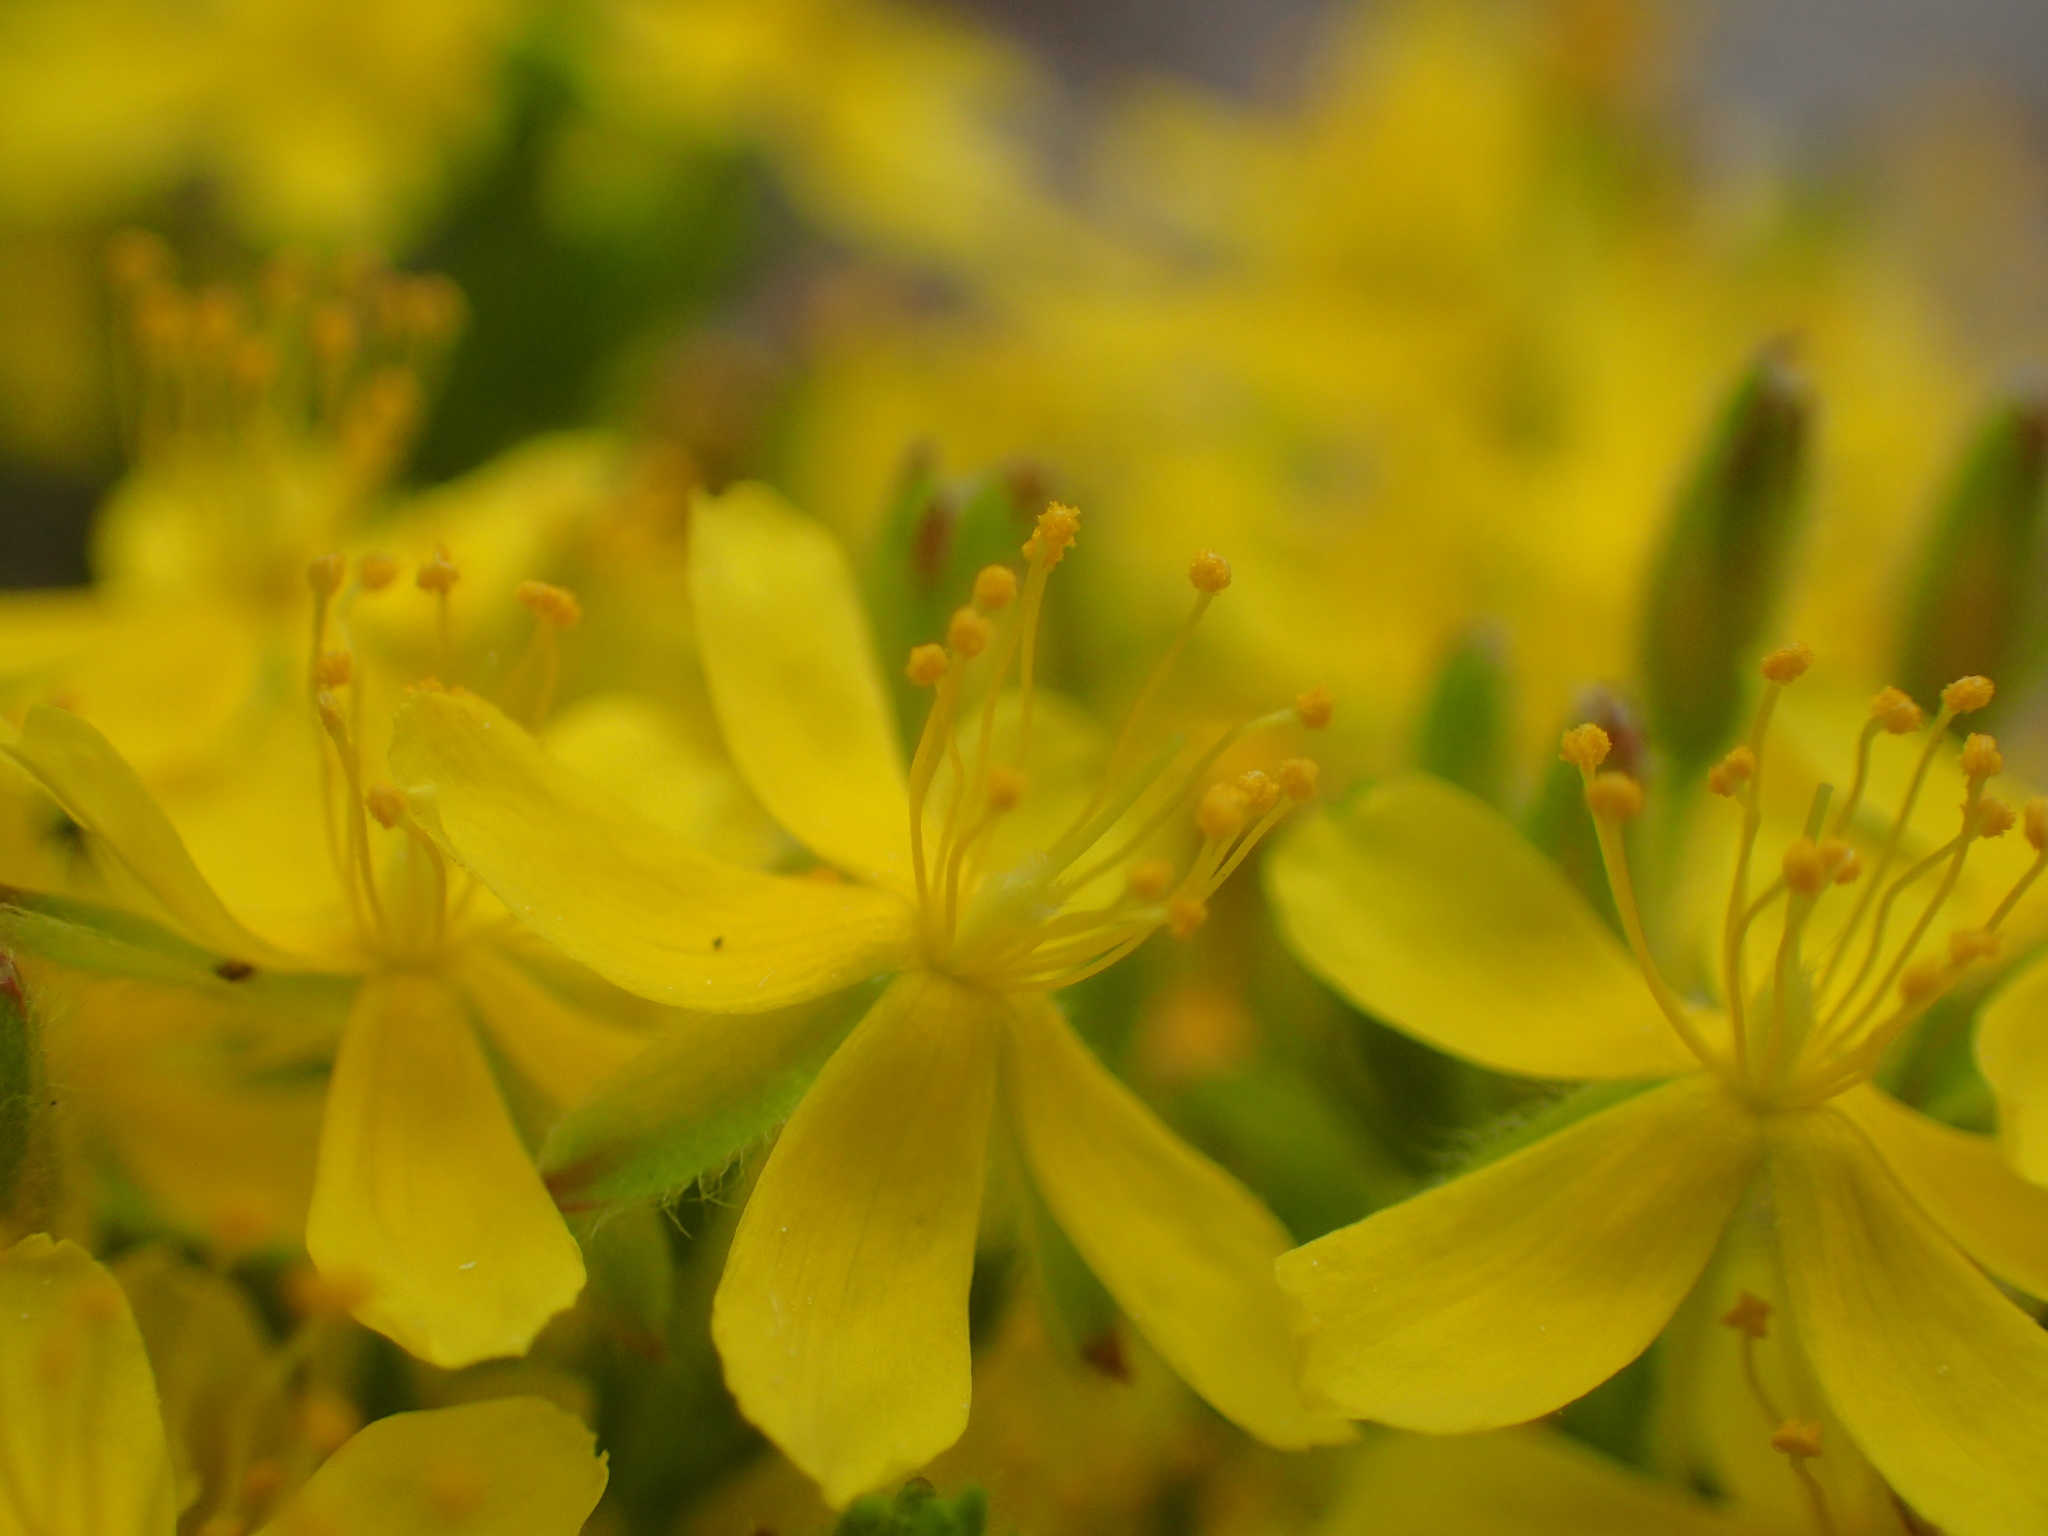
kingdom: Plantae
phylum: Tracheophyta
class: Magnoliopsida
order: Malvales
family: Cistaceae
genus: Hudsonia
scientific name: Hudsonia ericoides
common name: Golden-heather
